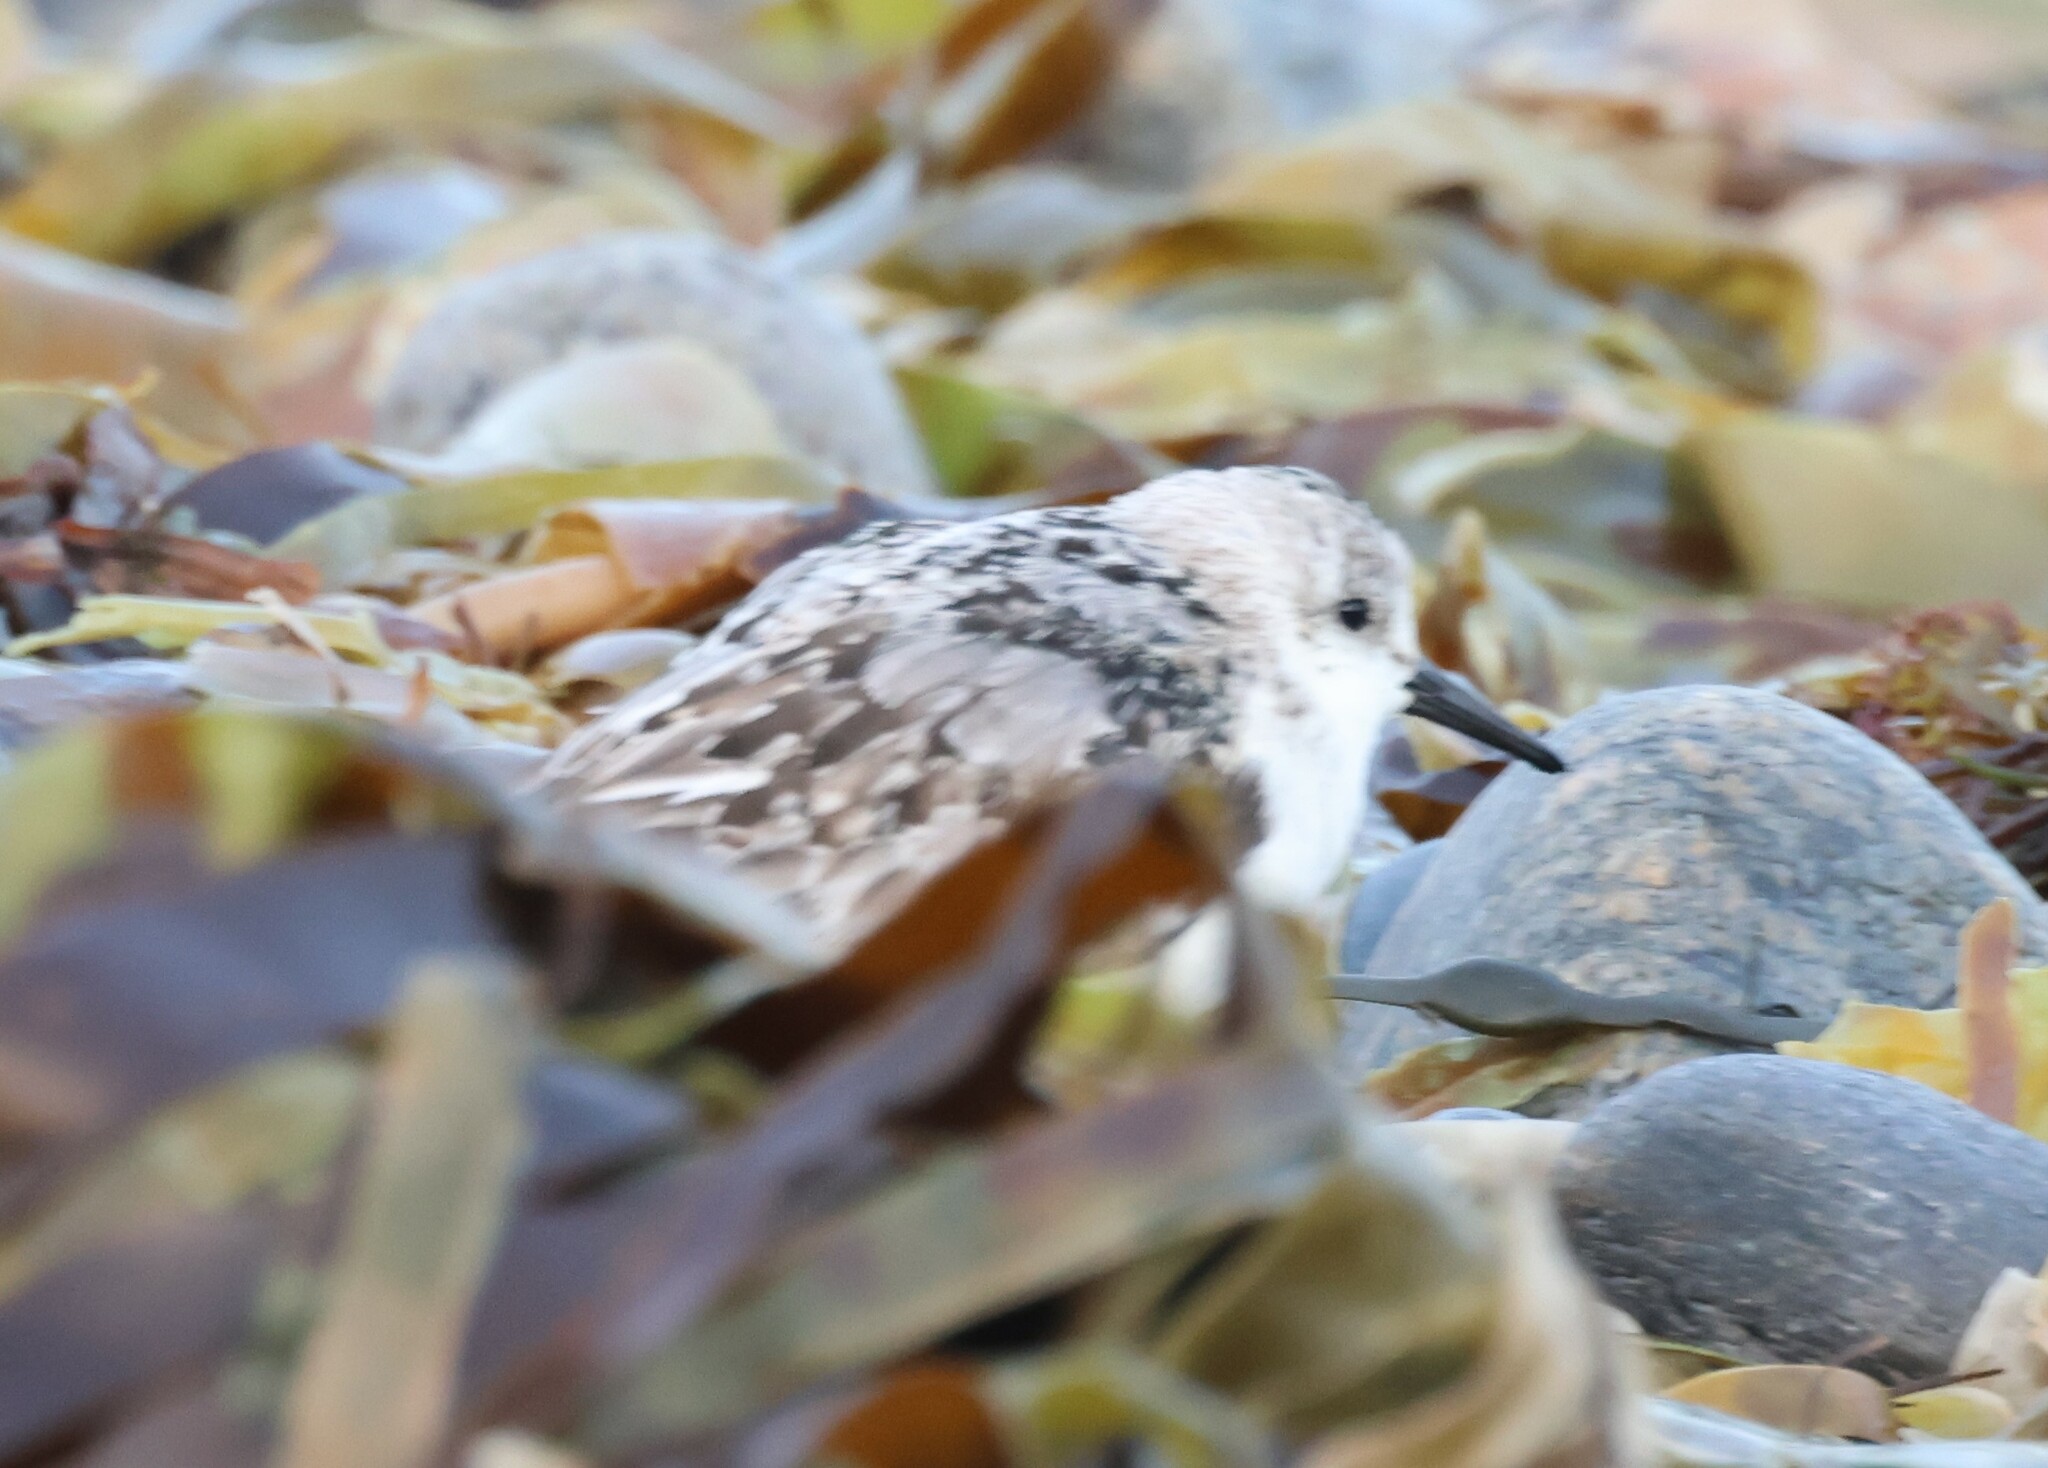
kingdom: Animalia
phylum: Chordata
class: Aves
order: Charadriiformes
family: Scolopacidae
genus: Calidris
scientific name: Calidris alba
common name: Sanderling
